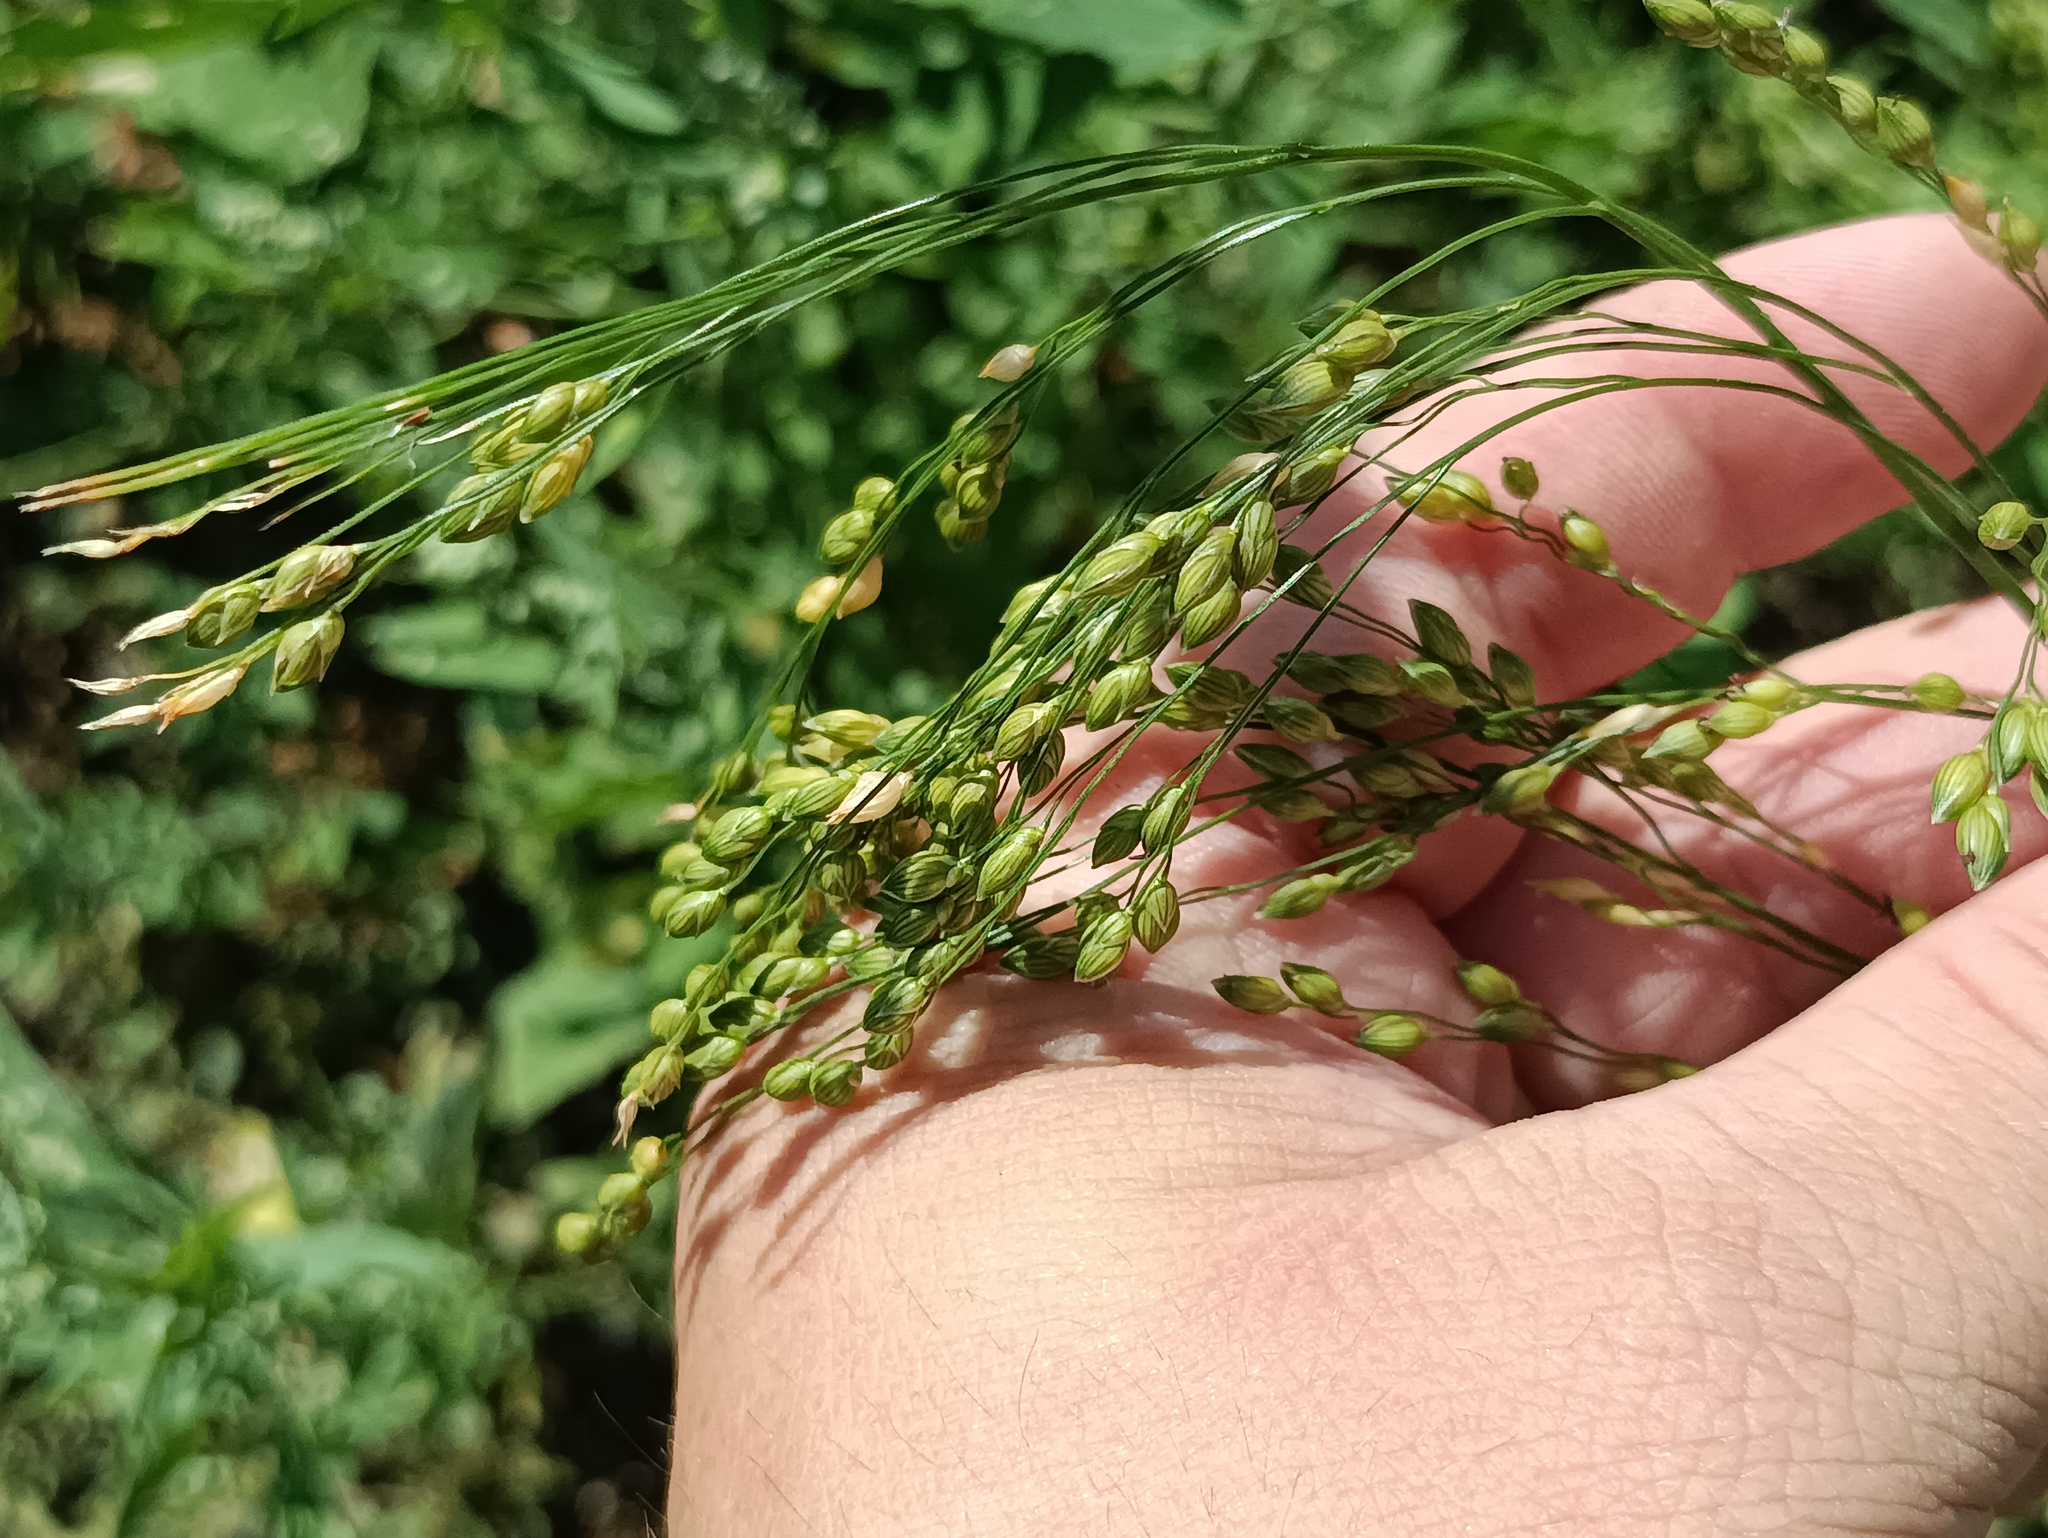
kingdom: Plantae
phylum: Tracheophyta
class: Liliopsida
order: Poales
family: Poaceae
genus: Panicum
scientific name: Panicum miliaceum
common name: Common millet
